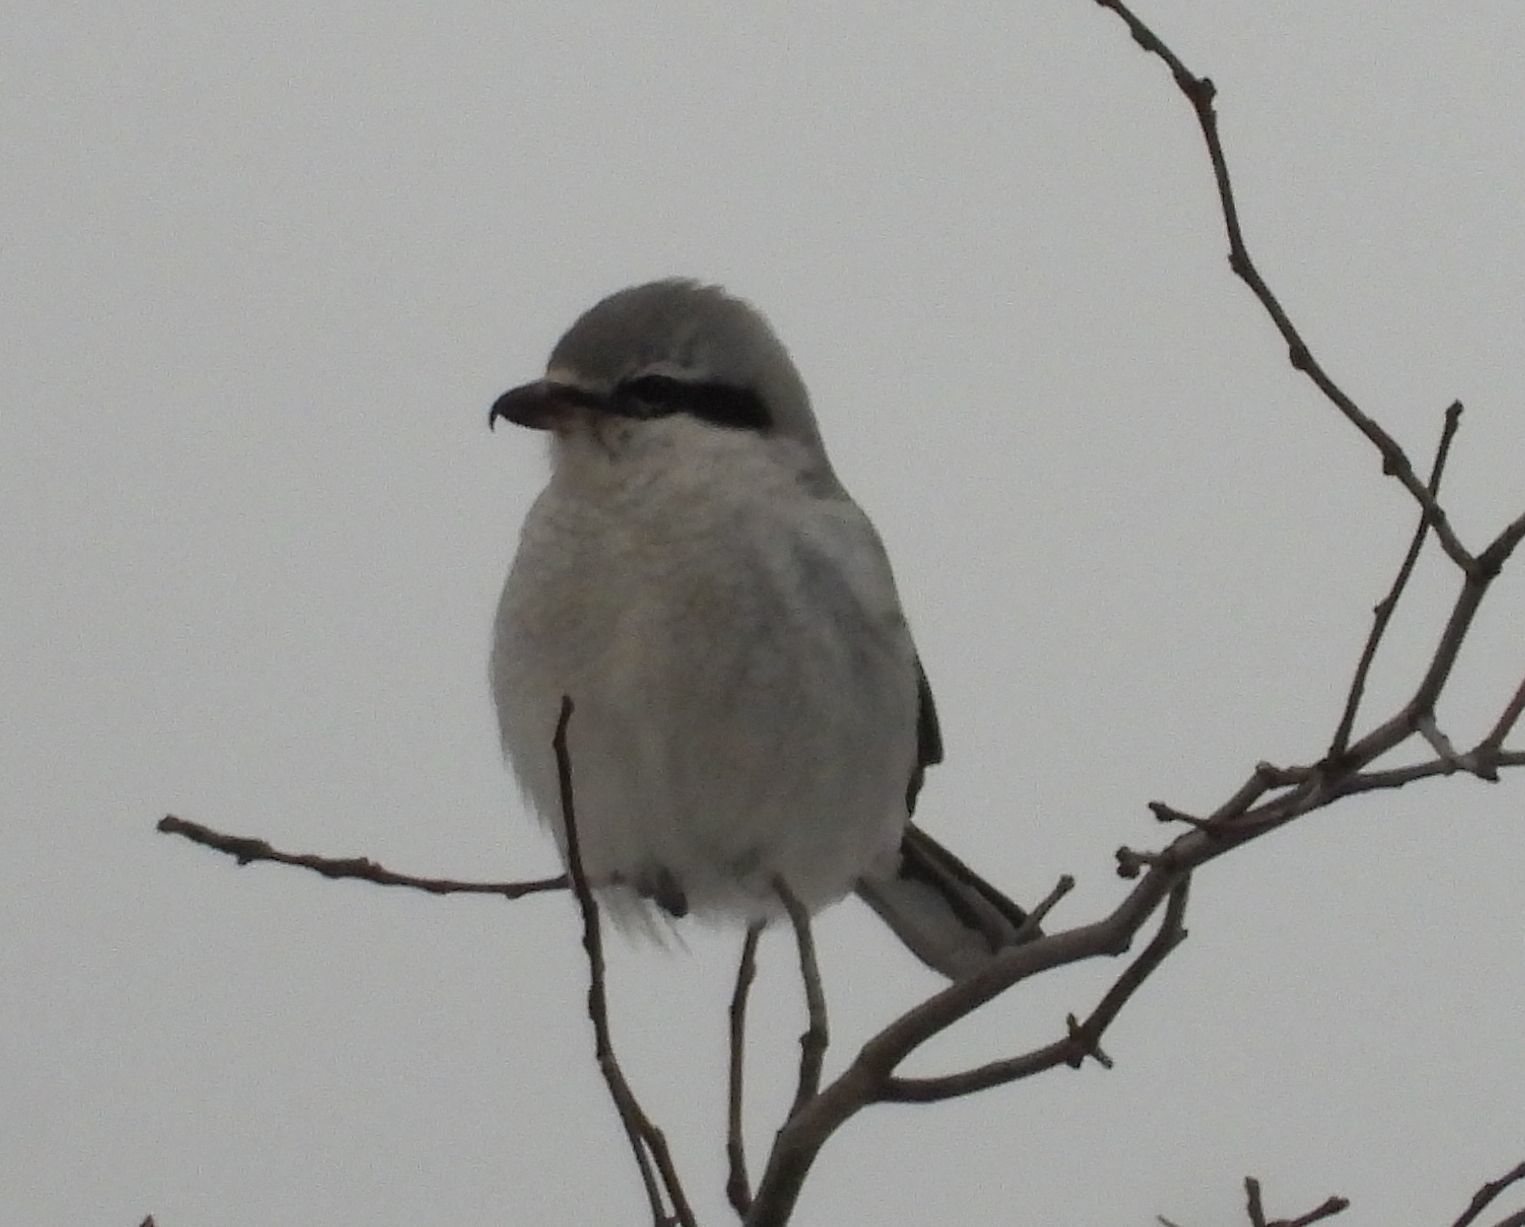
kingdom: Animalia
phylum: Chordata
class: Aves
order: Passeriformes
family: Laniidae
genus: Lanius
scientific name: Lanius borealis
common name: Northern shrike
